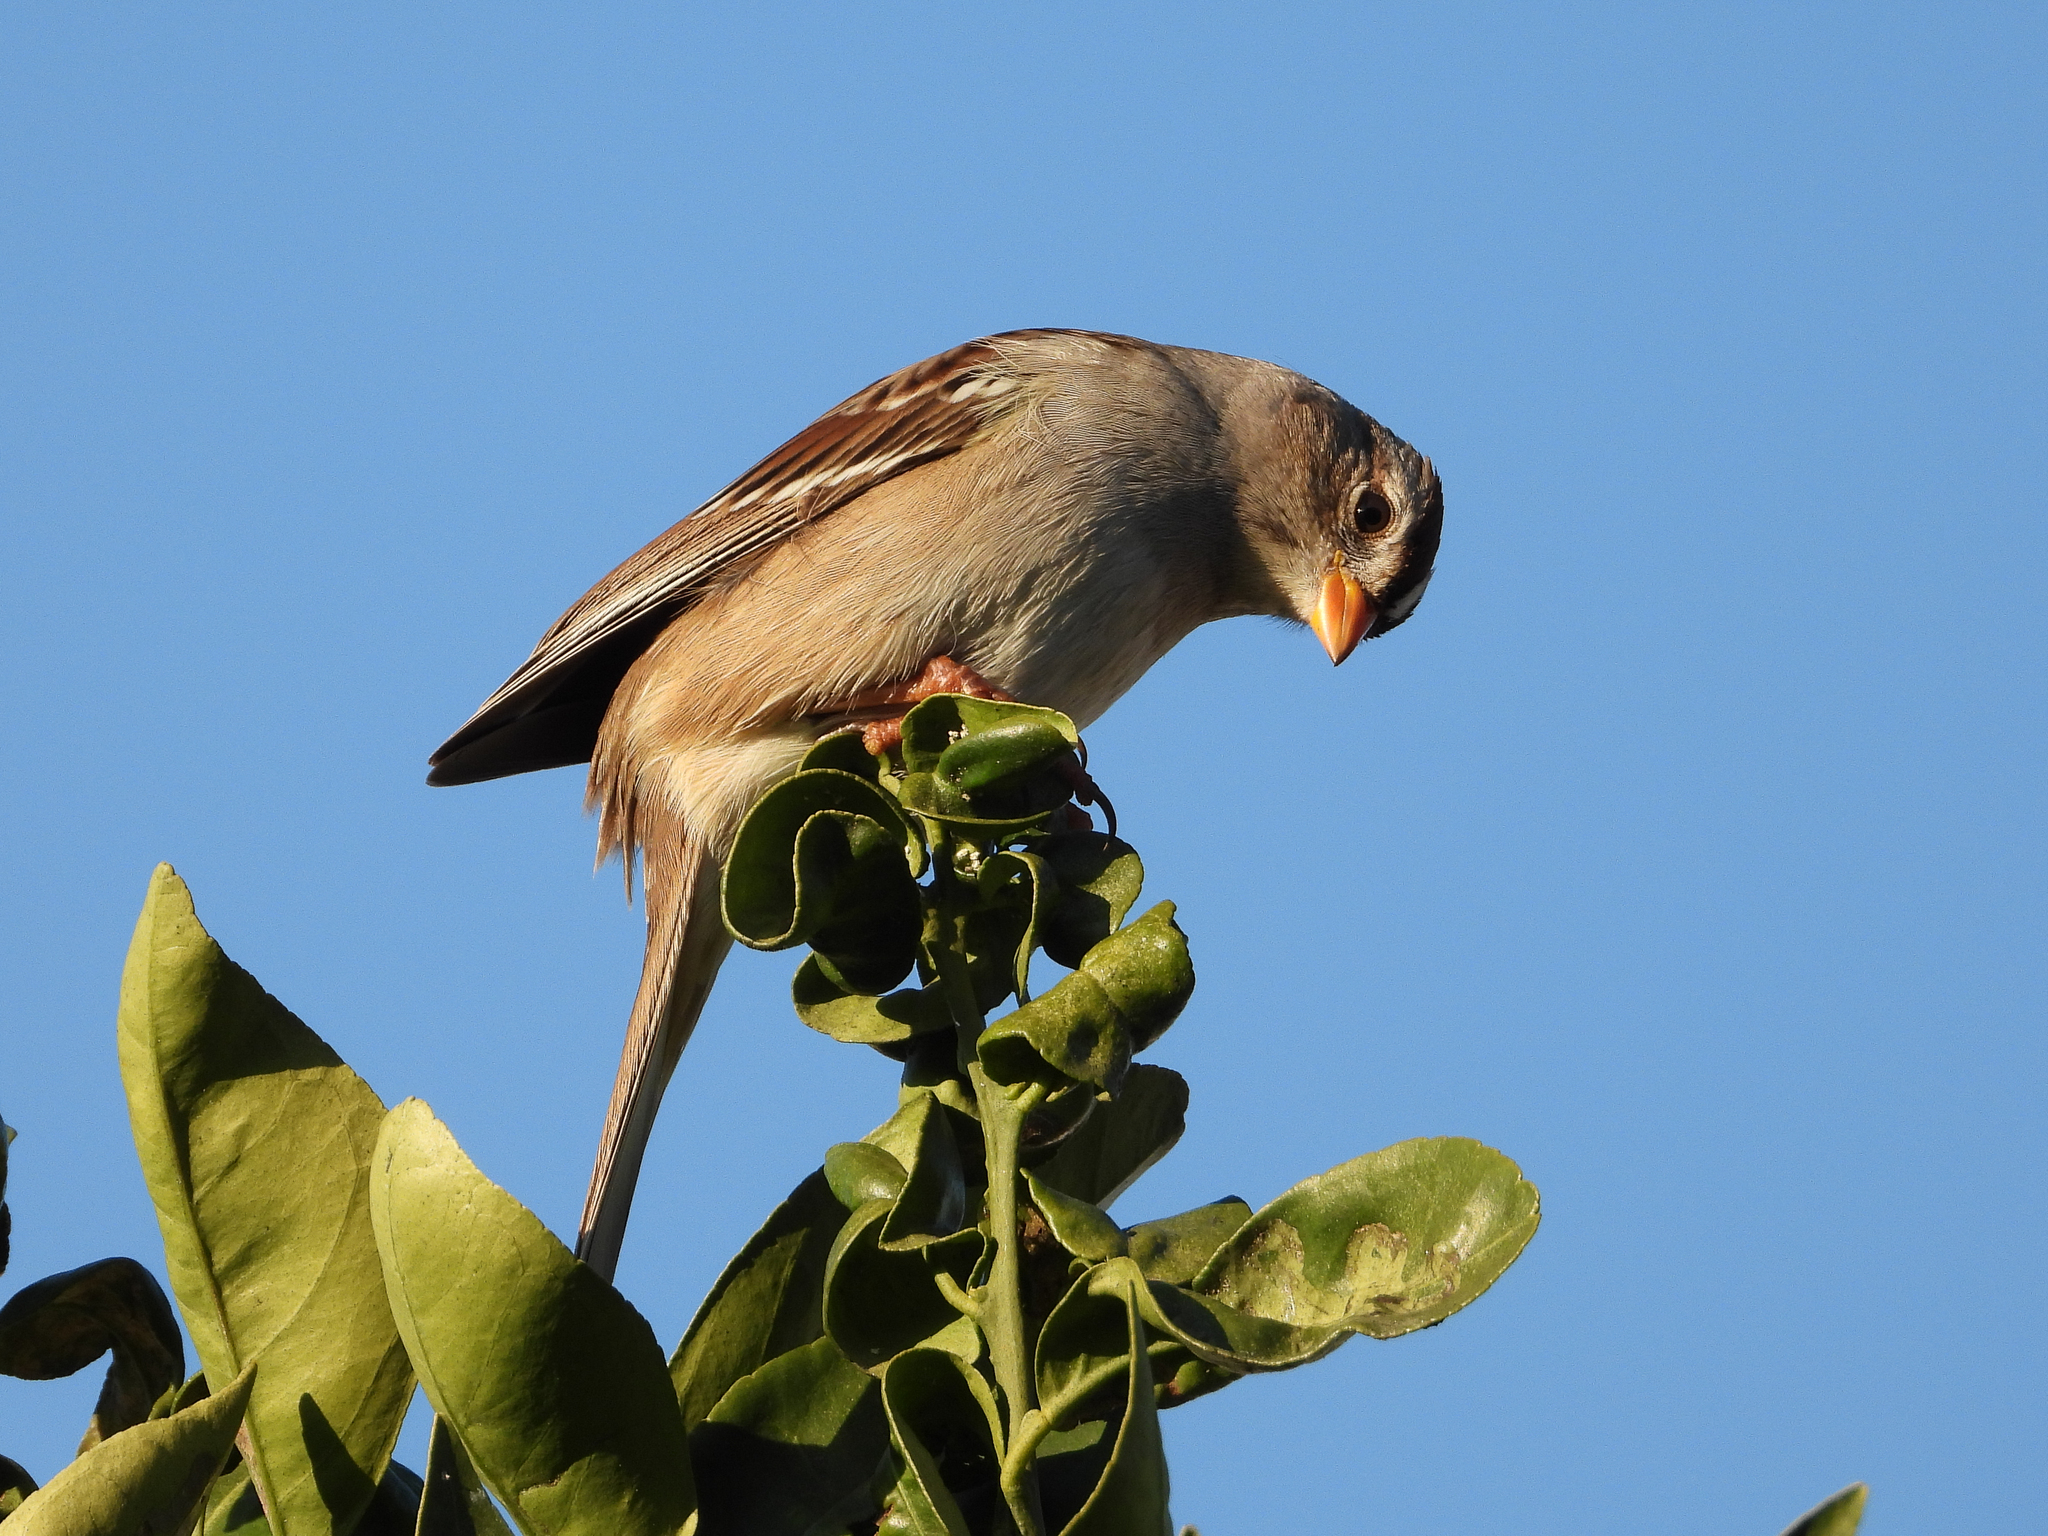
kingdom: Animalia
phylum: Chordata
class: Aves
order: Passeriformes
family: Passerellidae
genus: Zonotrichia
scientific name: Zonotrichia leucophrys
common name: White-crowned sparrow
